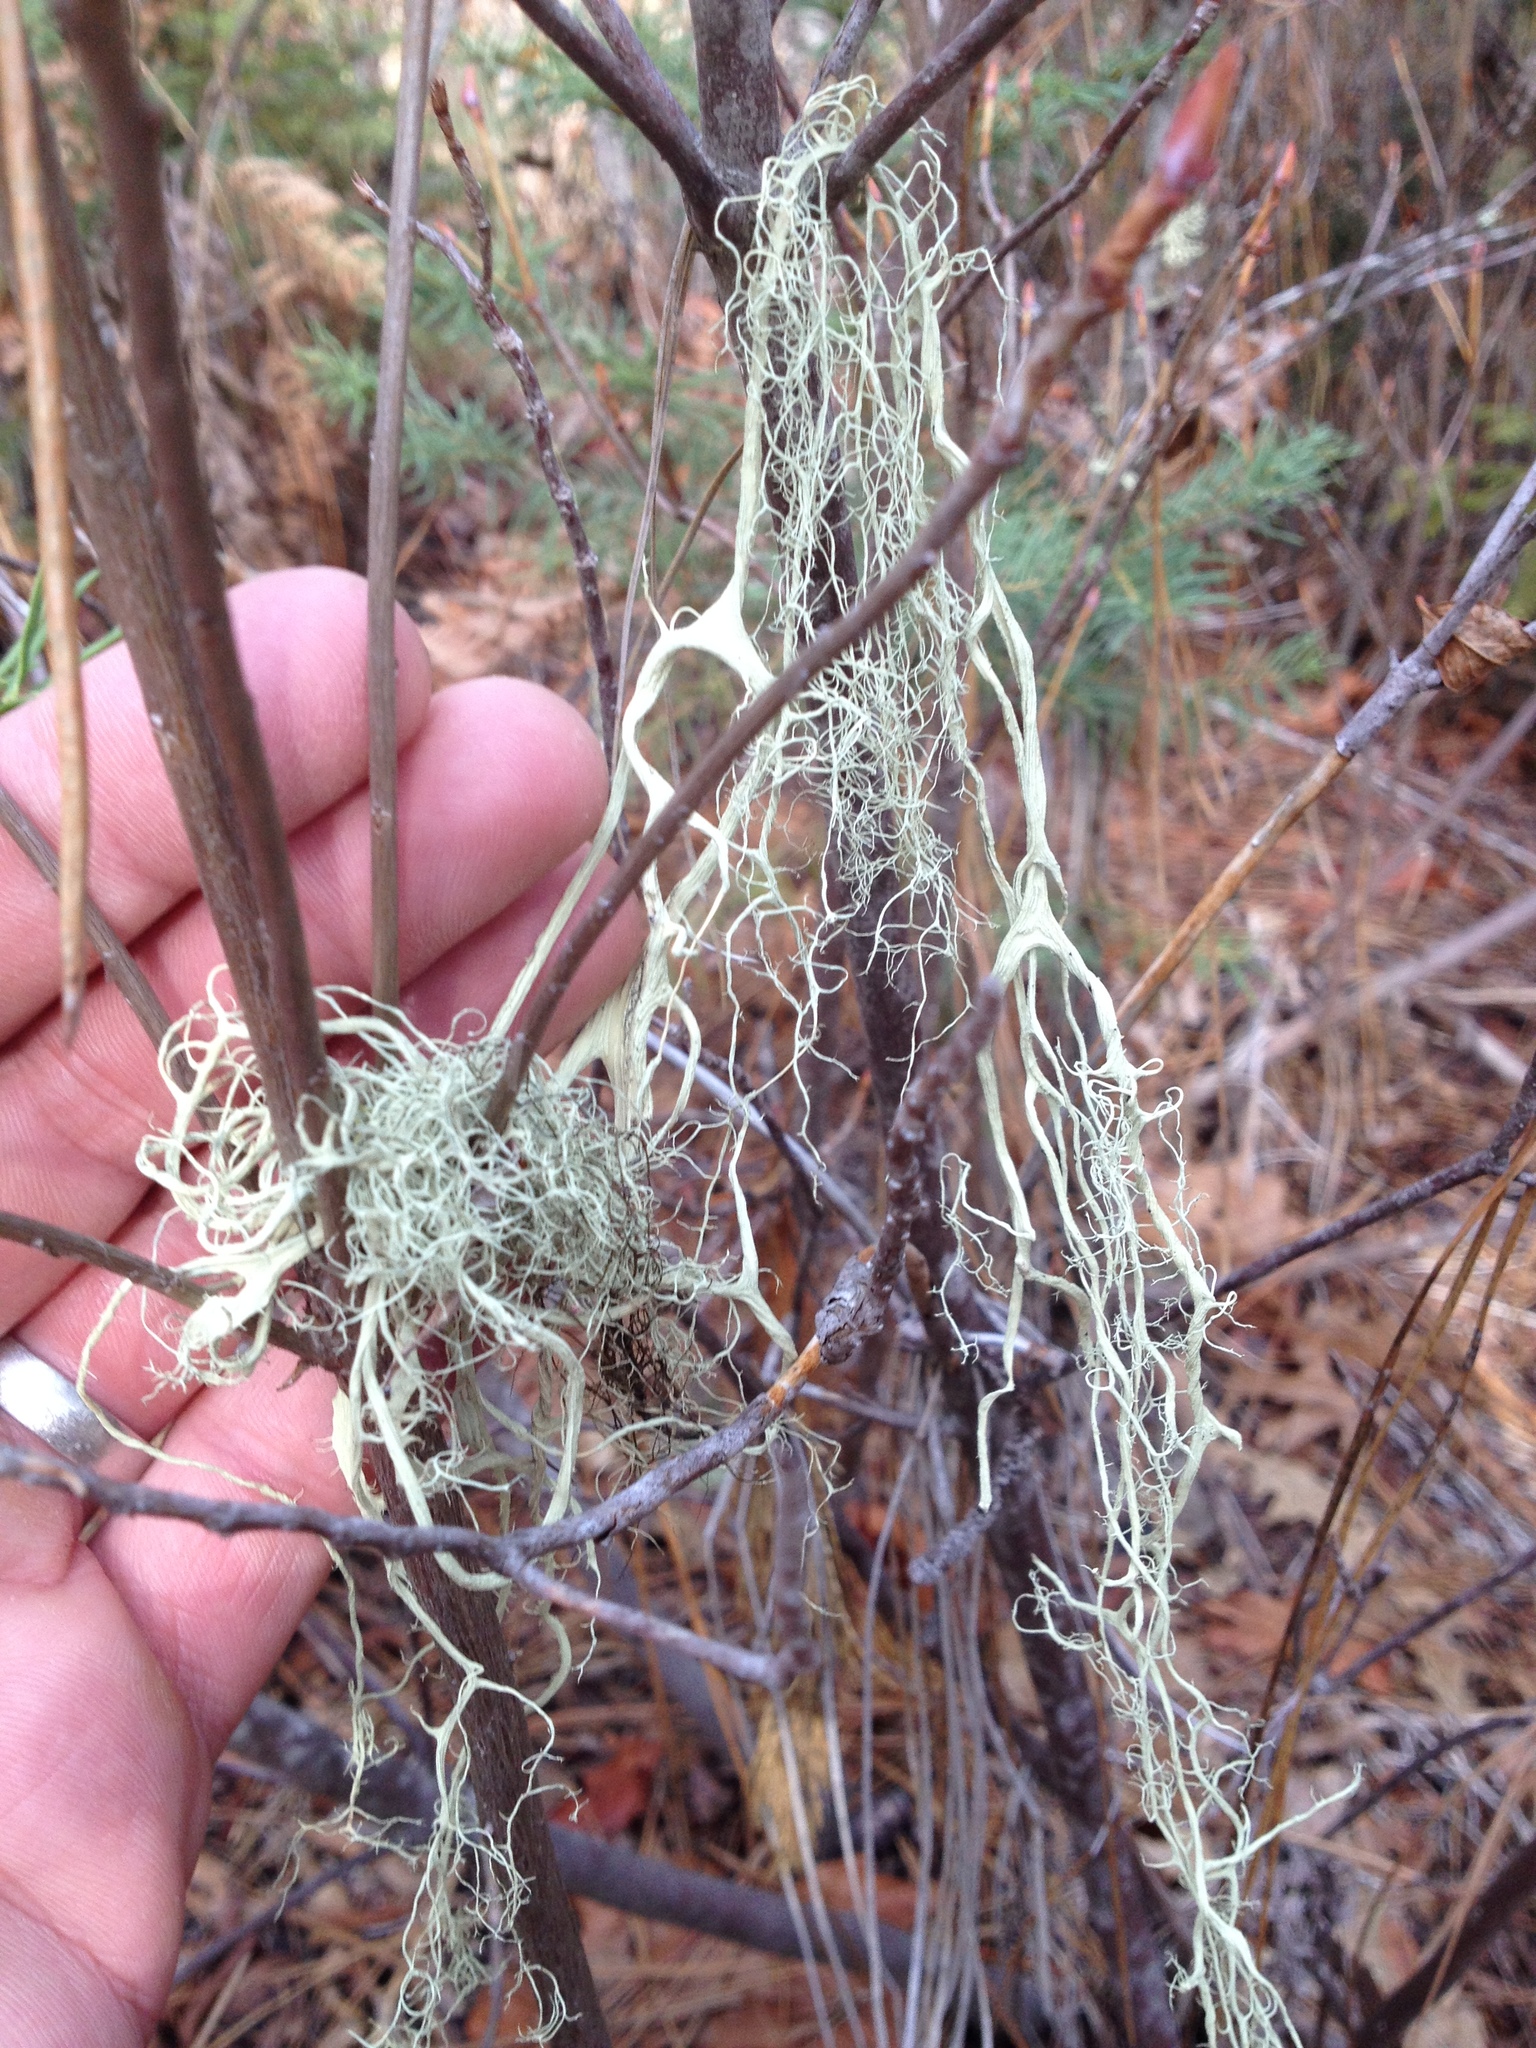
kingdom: Fungi
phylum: Ascomycota
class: Lecanoromycetes
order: Lecanorales
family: Parmeliaceae
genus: Alectoria
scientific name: Alectoria sarmentosa
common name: Witch's hair
